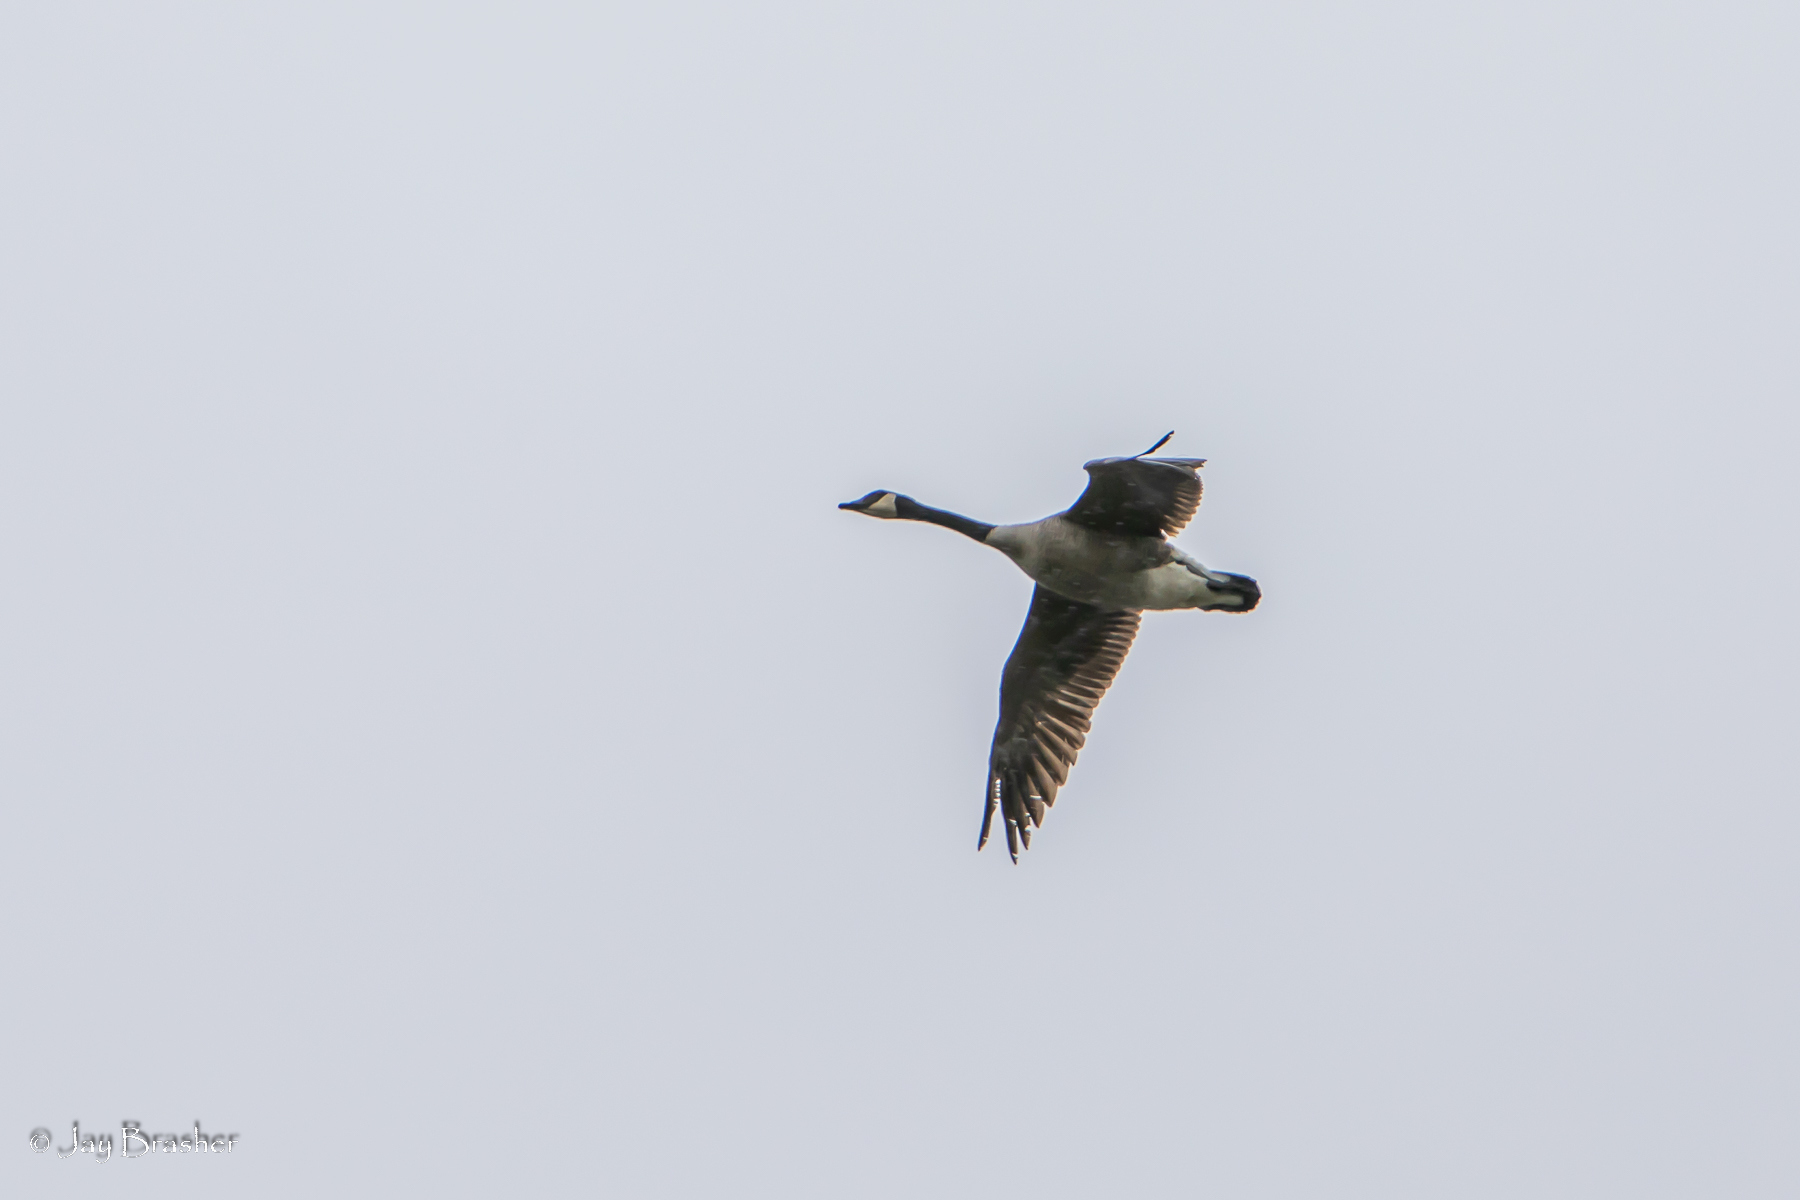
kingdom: Animalia
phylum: Chordata
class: Aves
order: Anseriformes
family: Anatidae
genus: Branta
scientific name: Branta canadensis
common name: Canada goose
